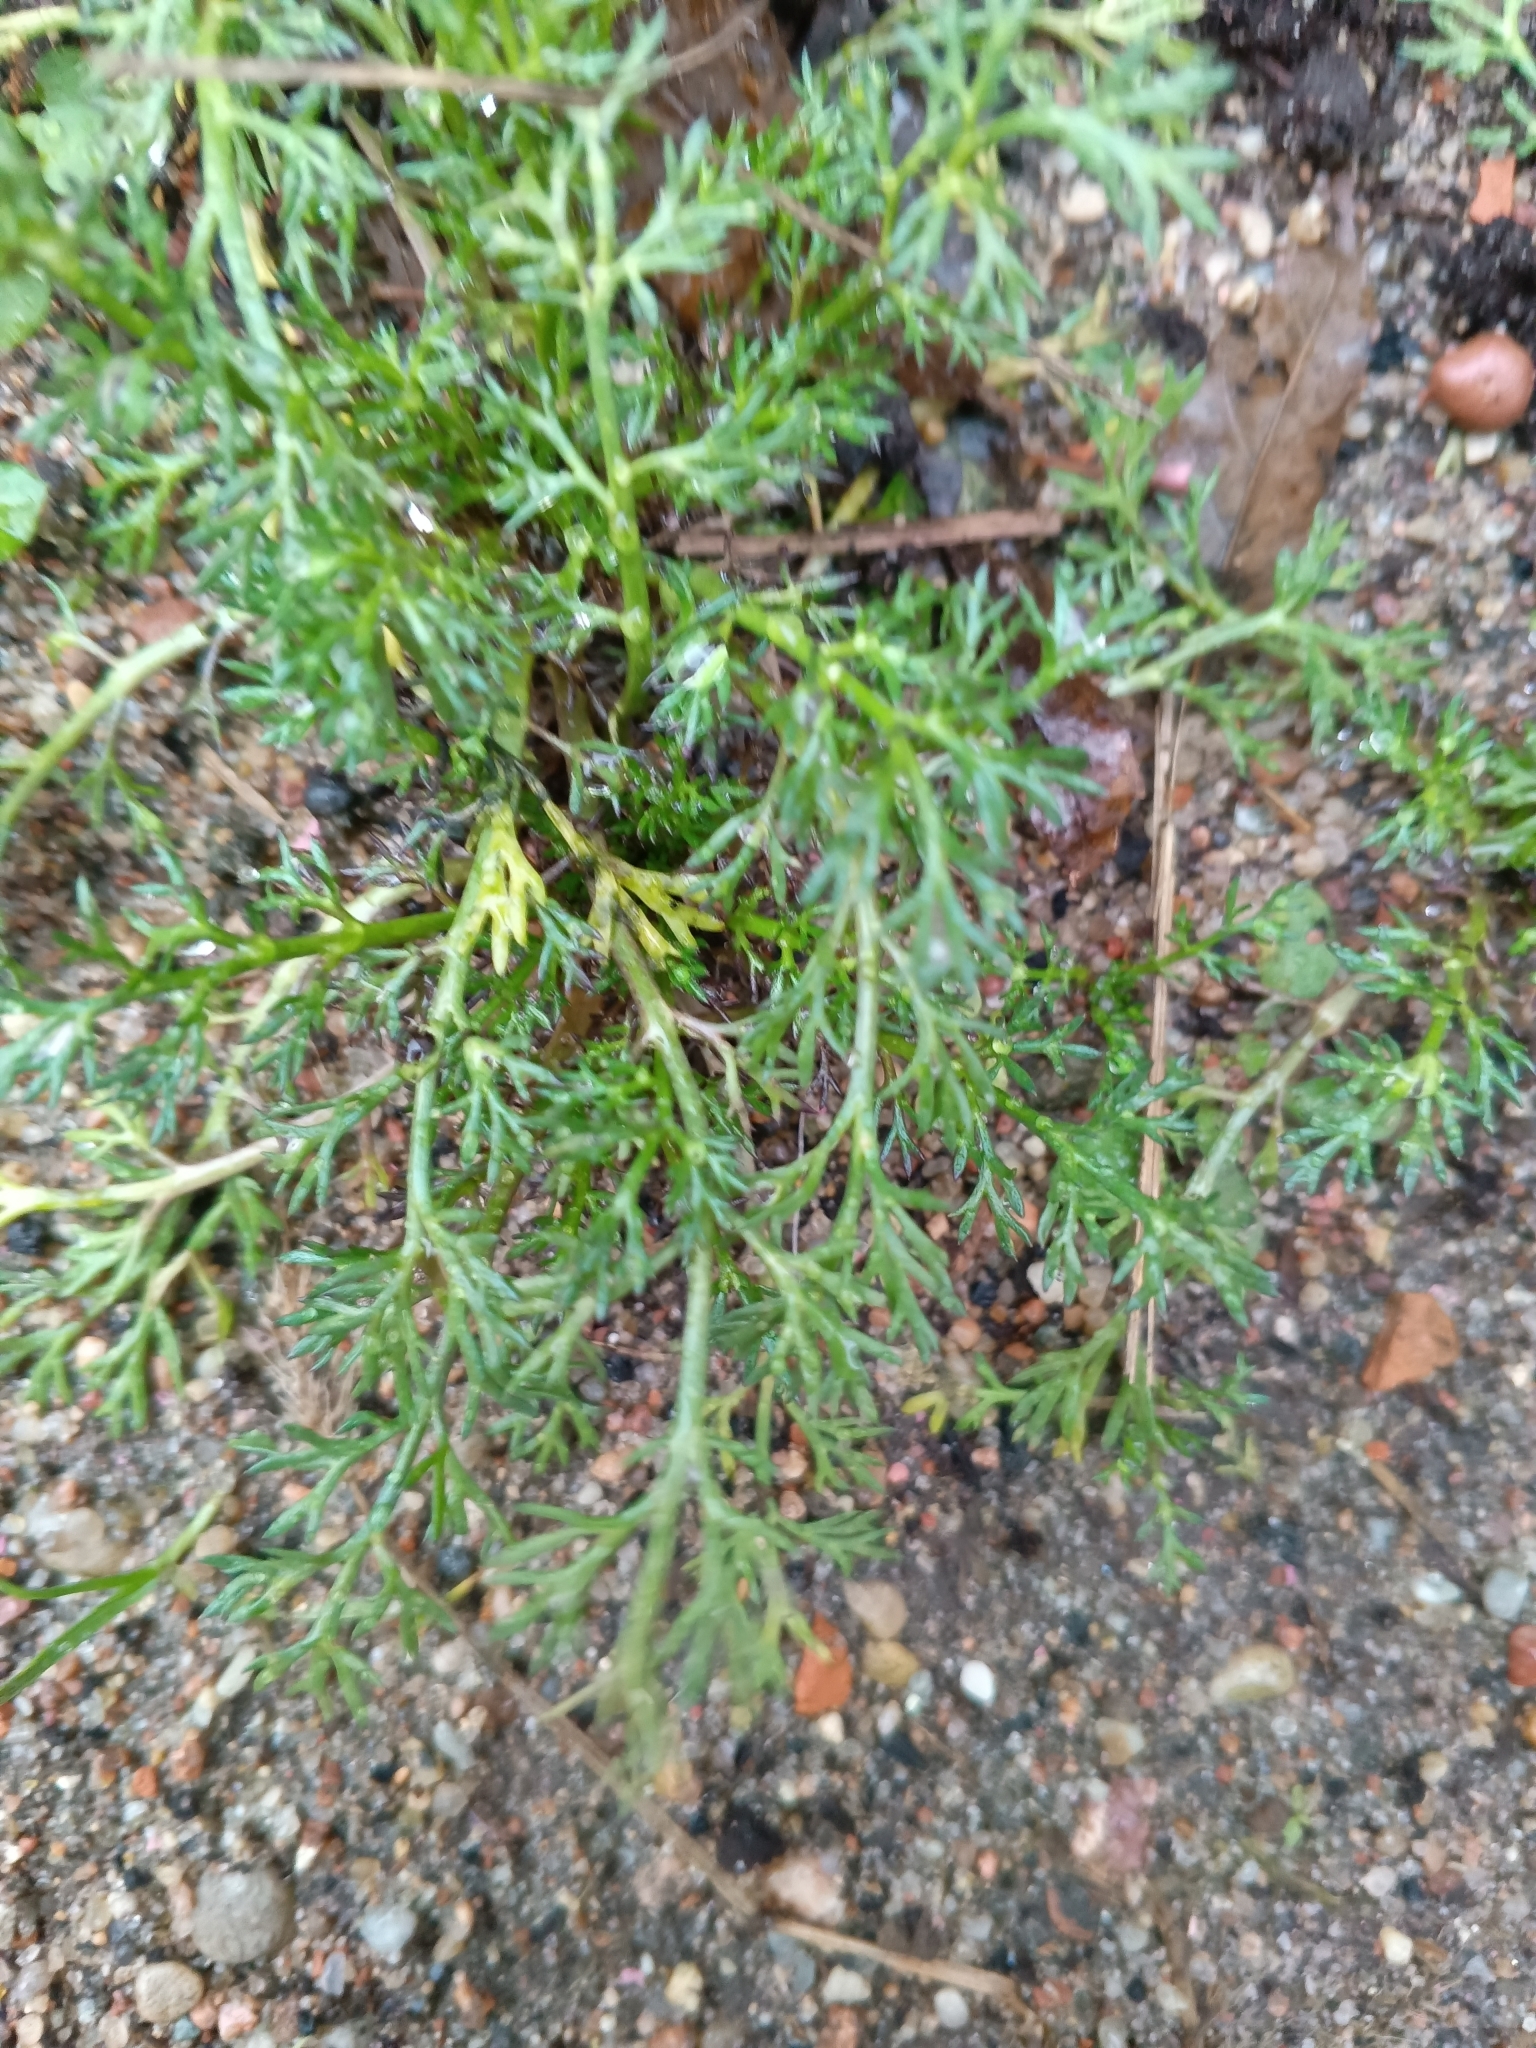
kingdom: Plantae
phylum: Tracheophyta
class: Magnoliopsida
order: Asterales
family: Asteraceae
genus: Tripleurospermum
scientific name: Tripleurospermum inodorum
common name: Scentless mayweed
